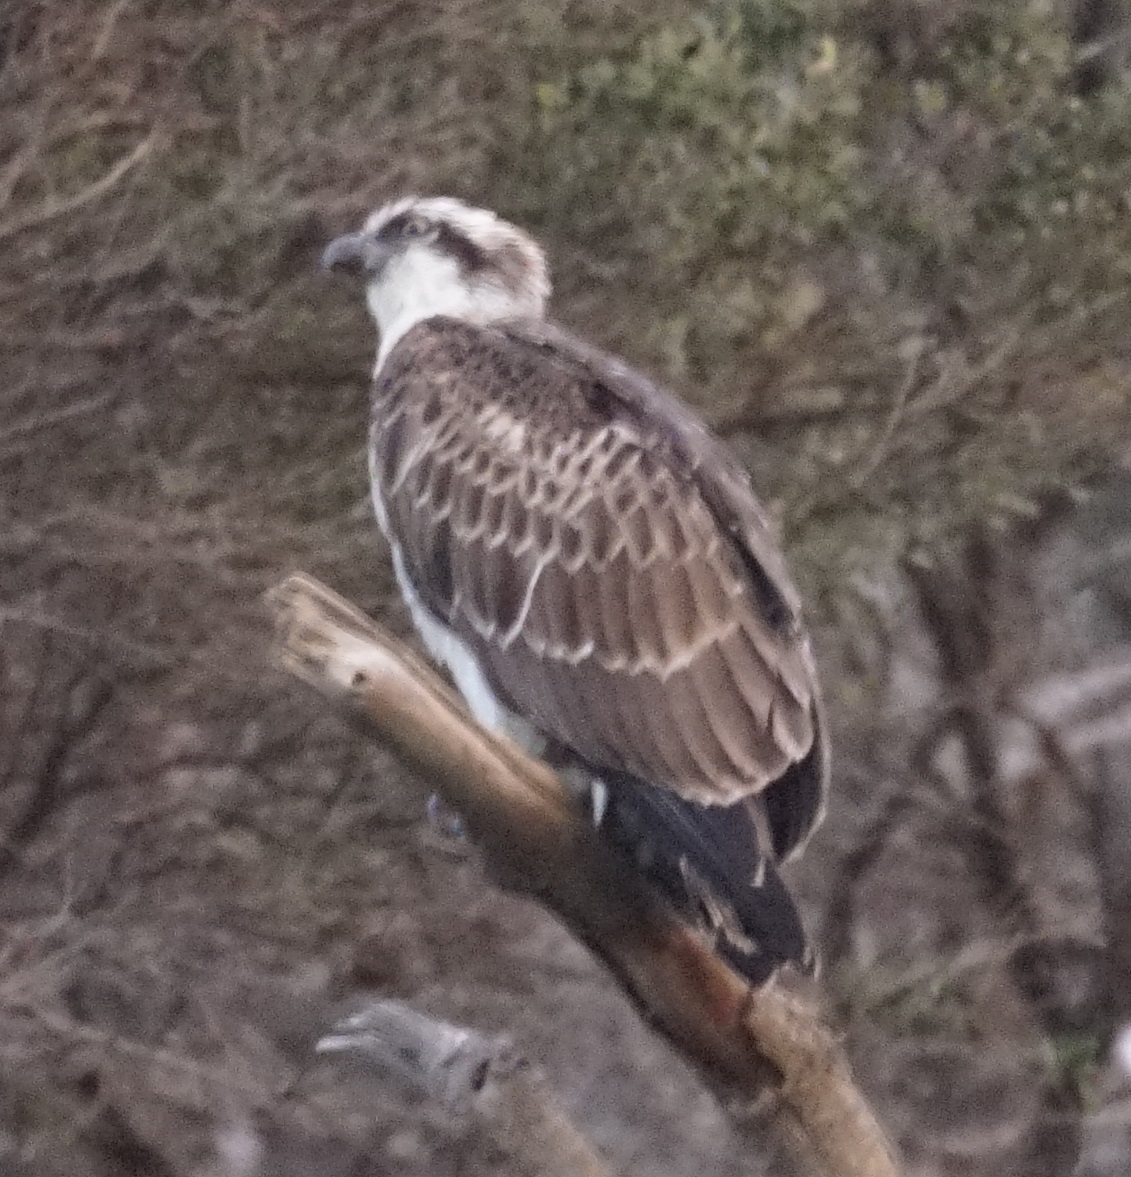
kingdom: Animalia
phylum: Chordata
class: Aves
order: Accipitriformes
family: Pandionidae
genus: Pandion
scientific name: Pandion cristatus
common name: Eastern osprey
